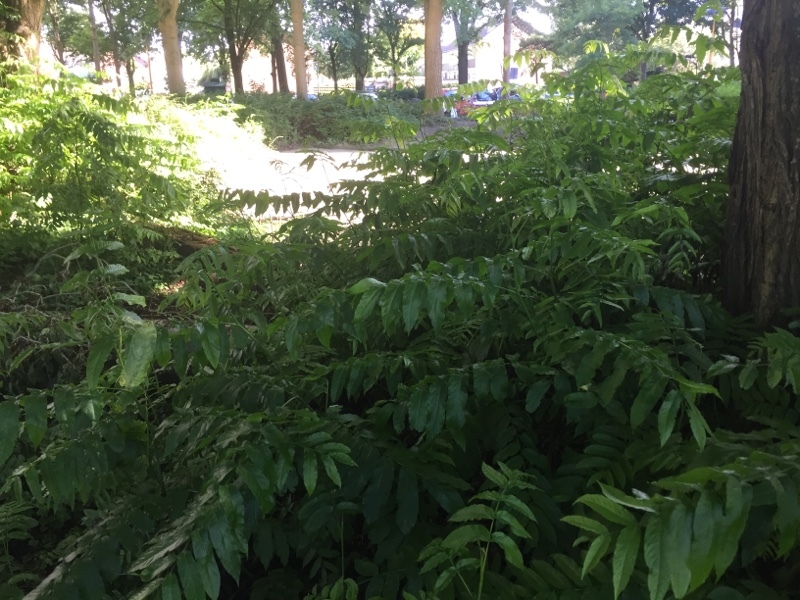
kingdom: Plantae
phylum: Tracheophyta
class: Magnoliopsida
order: Fagales
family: Juglandaceae
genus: Pterocarya
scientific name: Pterocarya fraxinifolia
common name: Caucasian wingnut
